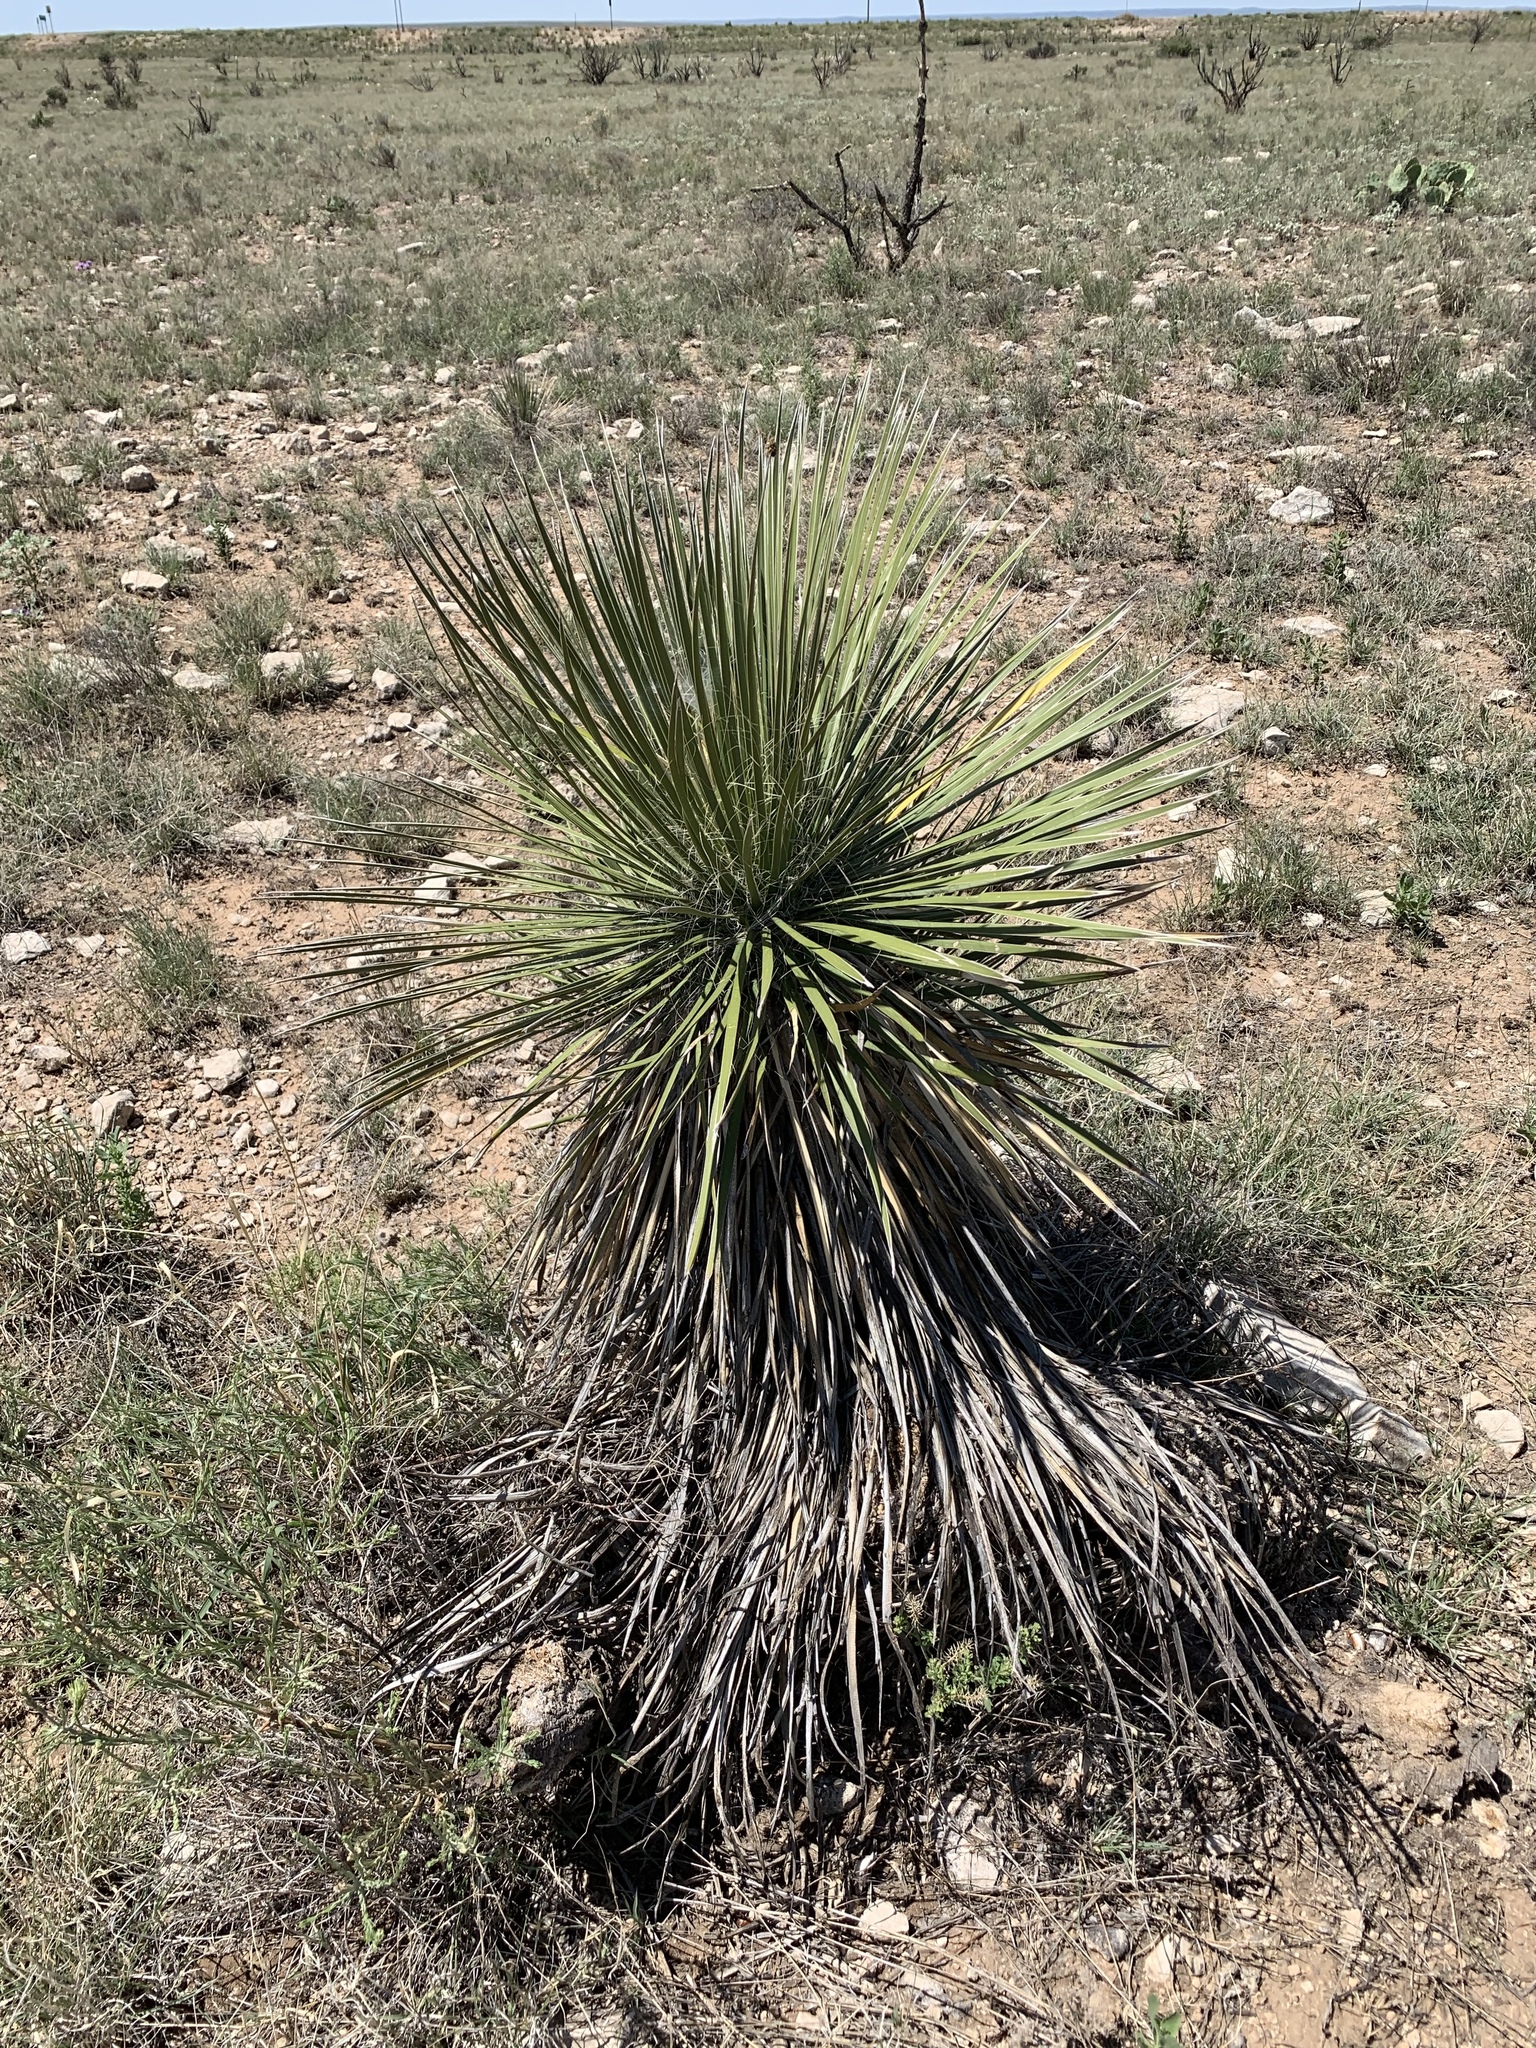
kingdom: Plantae
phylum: Tracheophyta
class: Liliopsida
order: Asparagales
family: Asparagaceae
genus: Yucca
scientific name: Yucca elata
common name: Palmella
